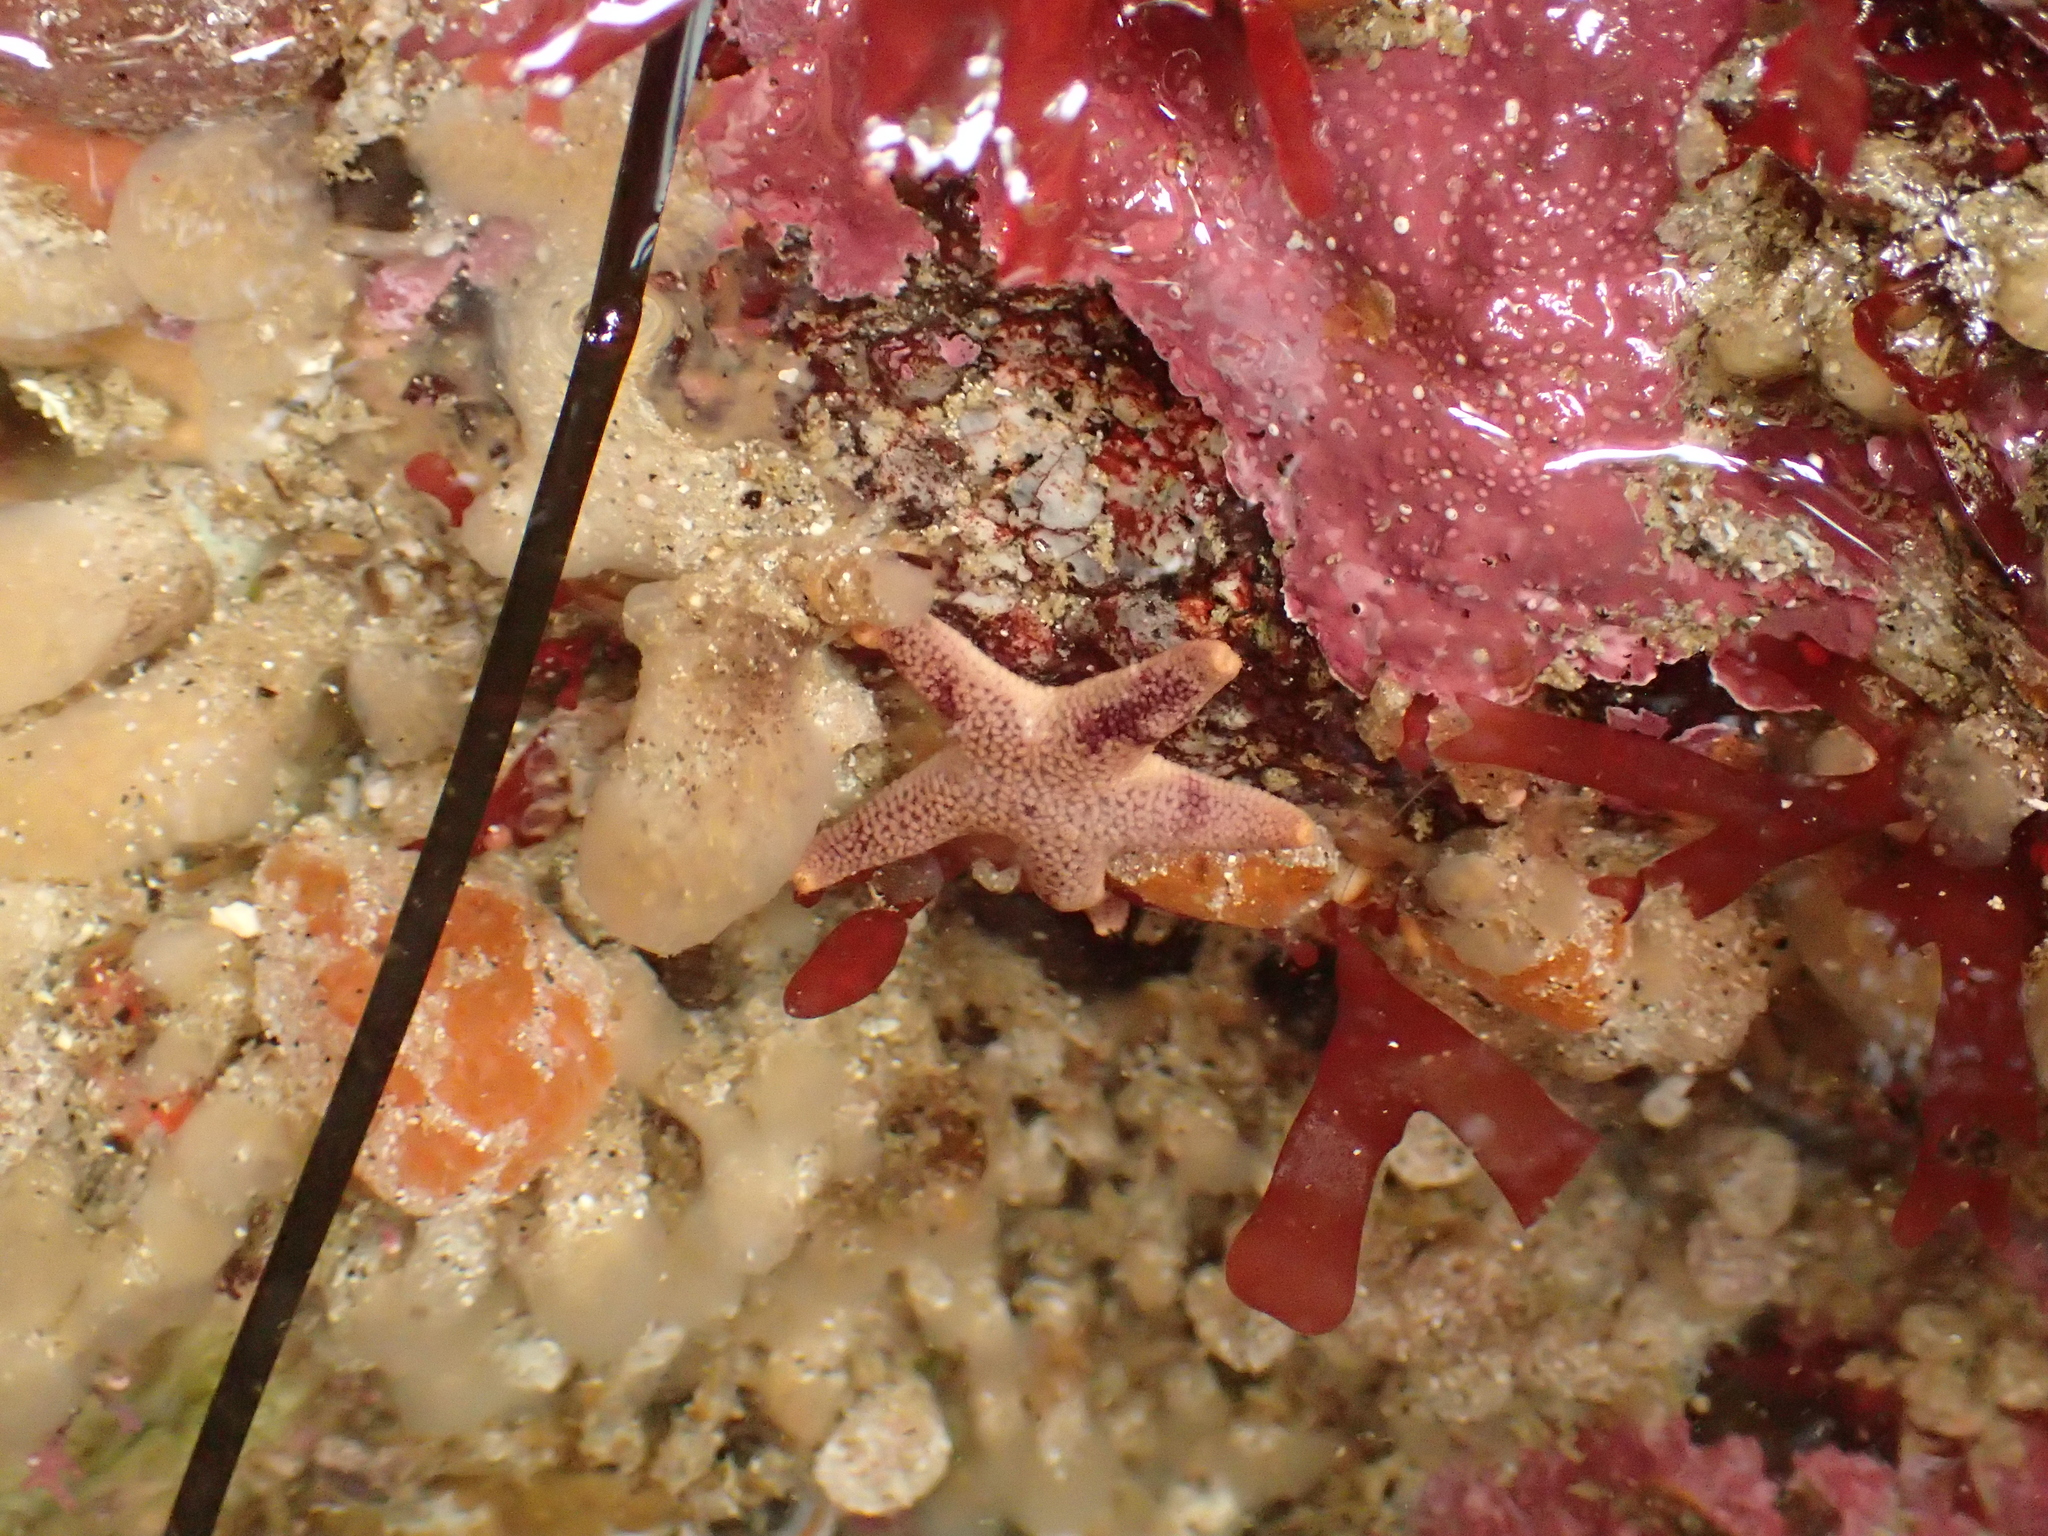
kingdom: Animalia
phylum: Echinodermata
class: Asteroidea
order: Spinulosida
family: Echinasteridae
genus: Henricia
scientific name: Henricia pumila
